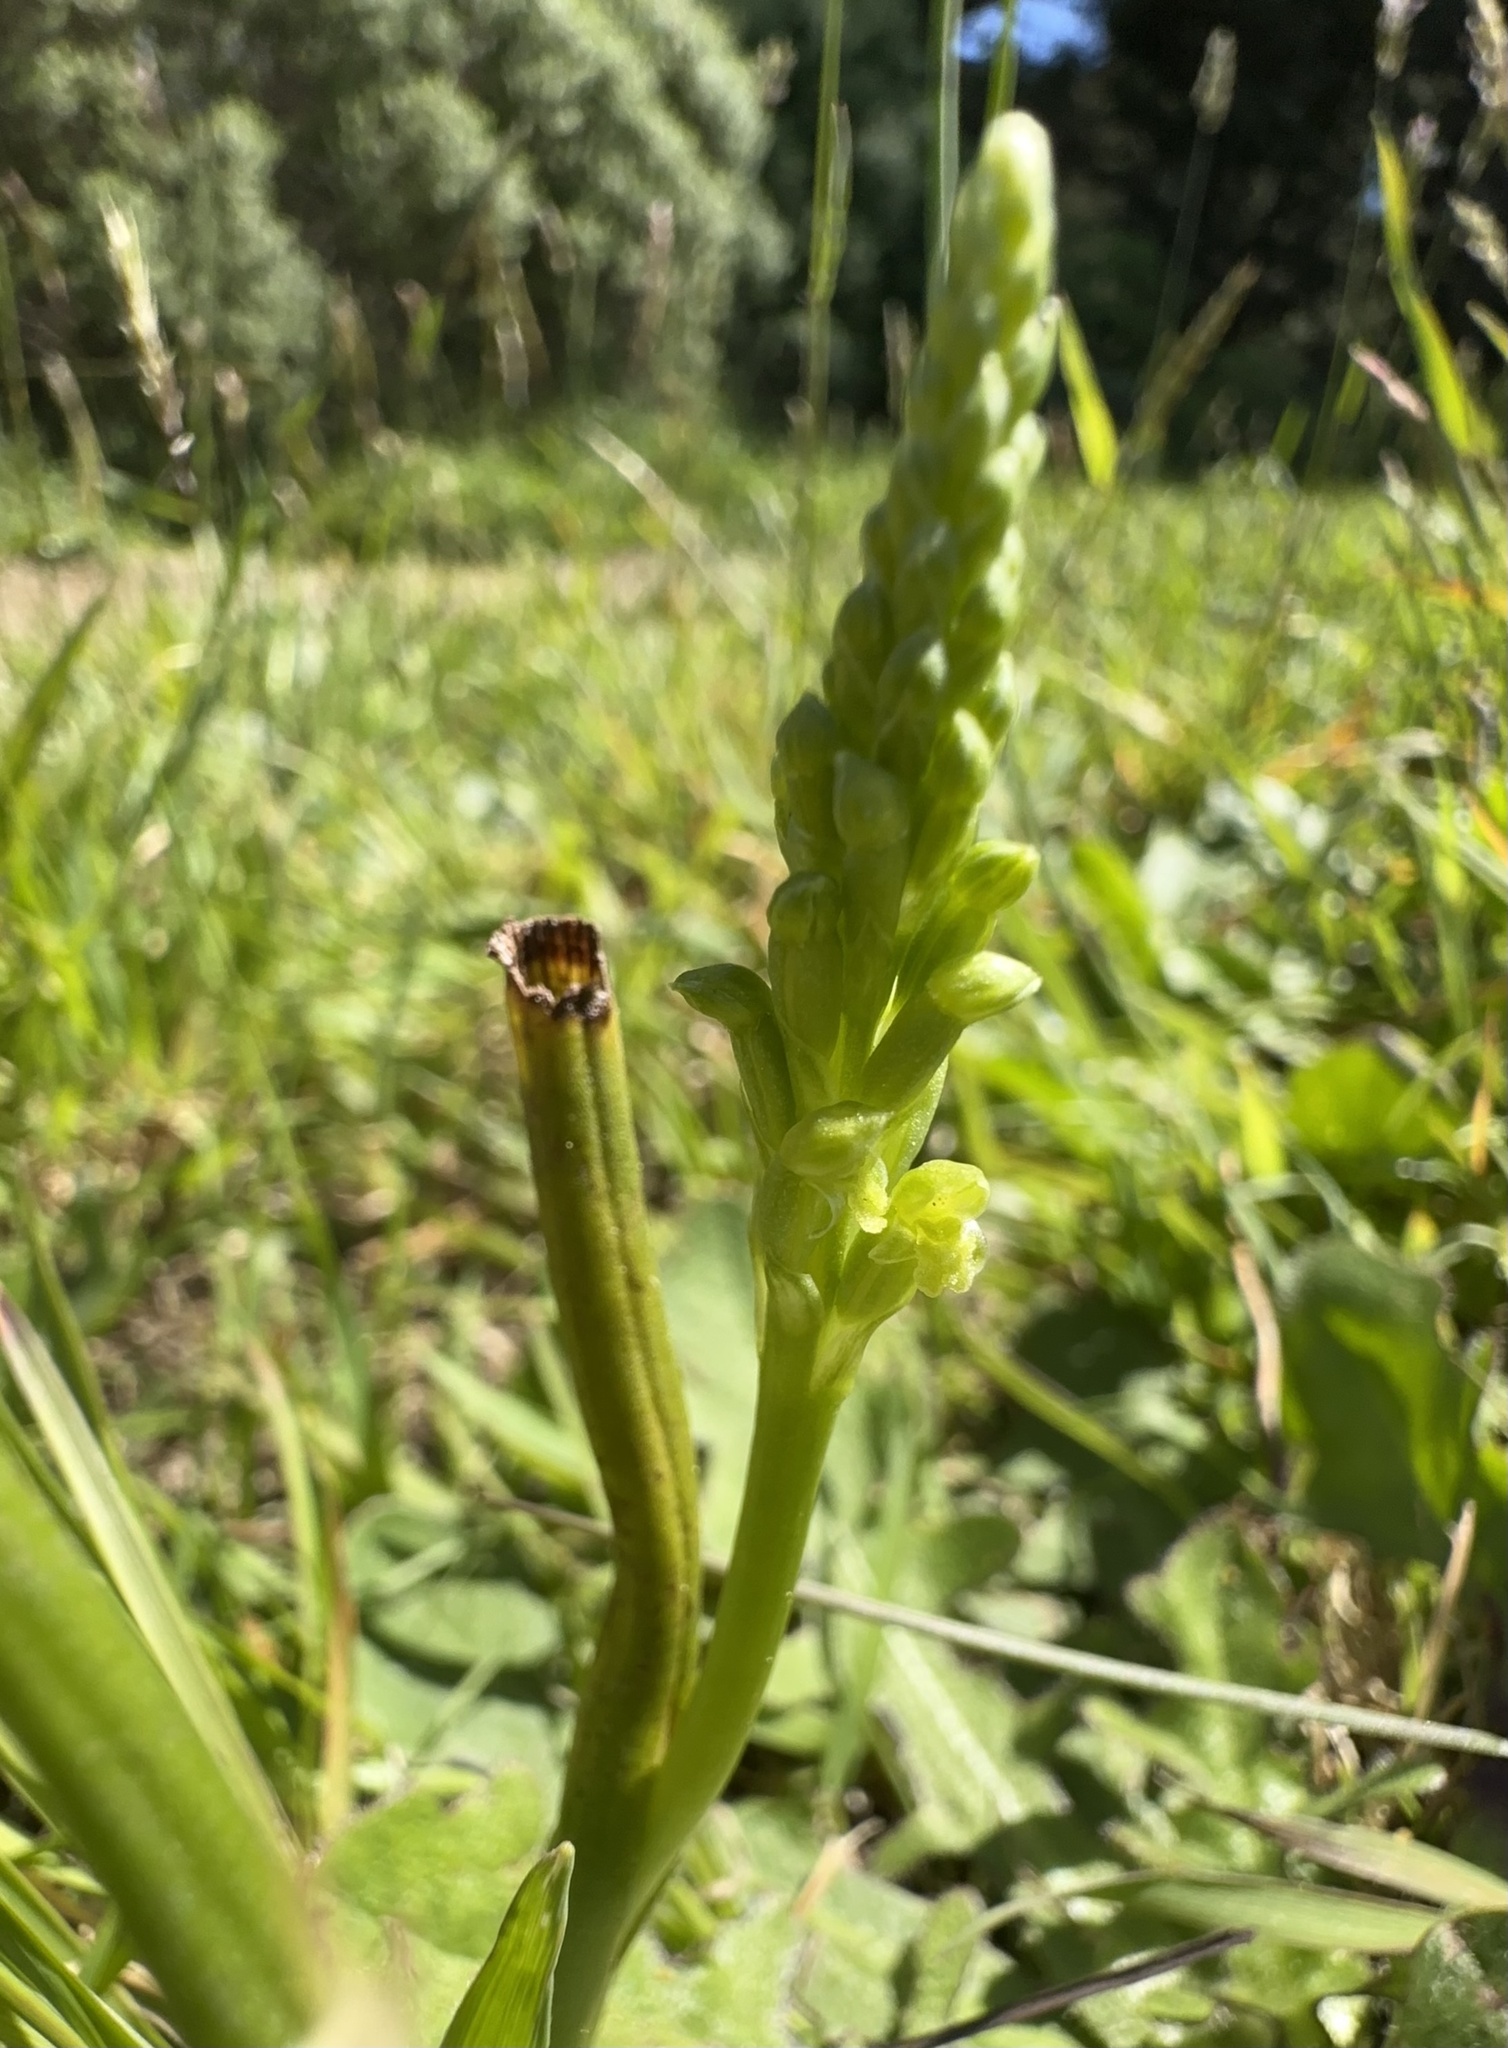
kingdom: Plantae
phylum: Tracheophyta
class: Liliopsida
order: Asparagales
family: Orchidaceae
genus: Microtis
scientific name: Microtis unifolia
